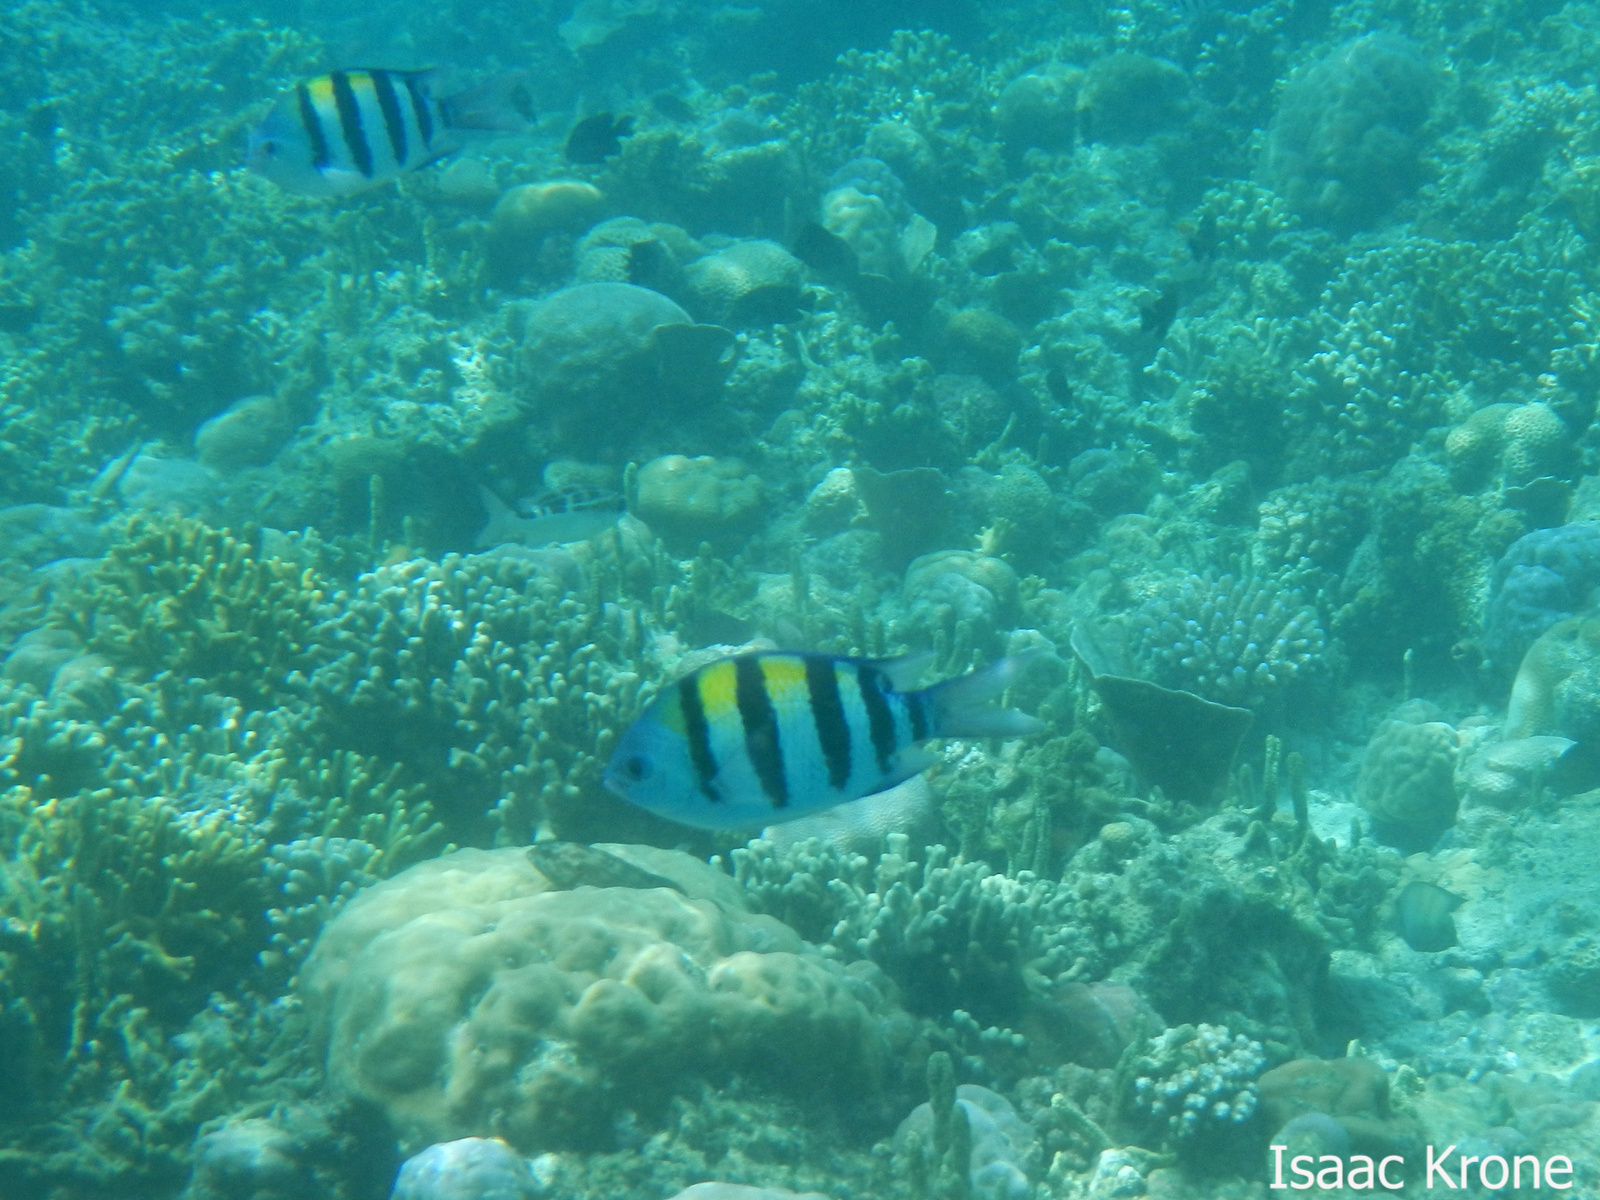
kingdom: Animalia
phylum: Chordata
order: Perciformes
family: Pomacentridae
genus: Abudefduf
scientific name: Abudefduf vaigiensis
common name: Indo-pacific sergeant
